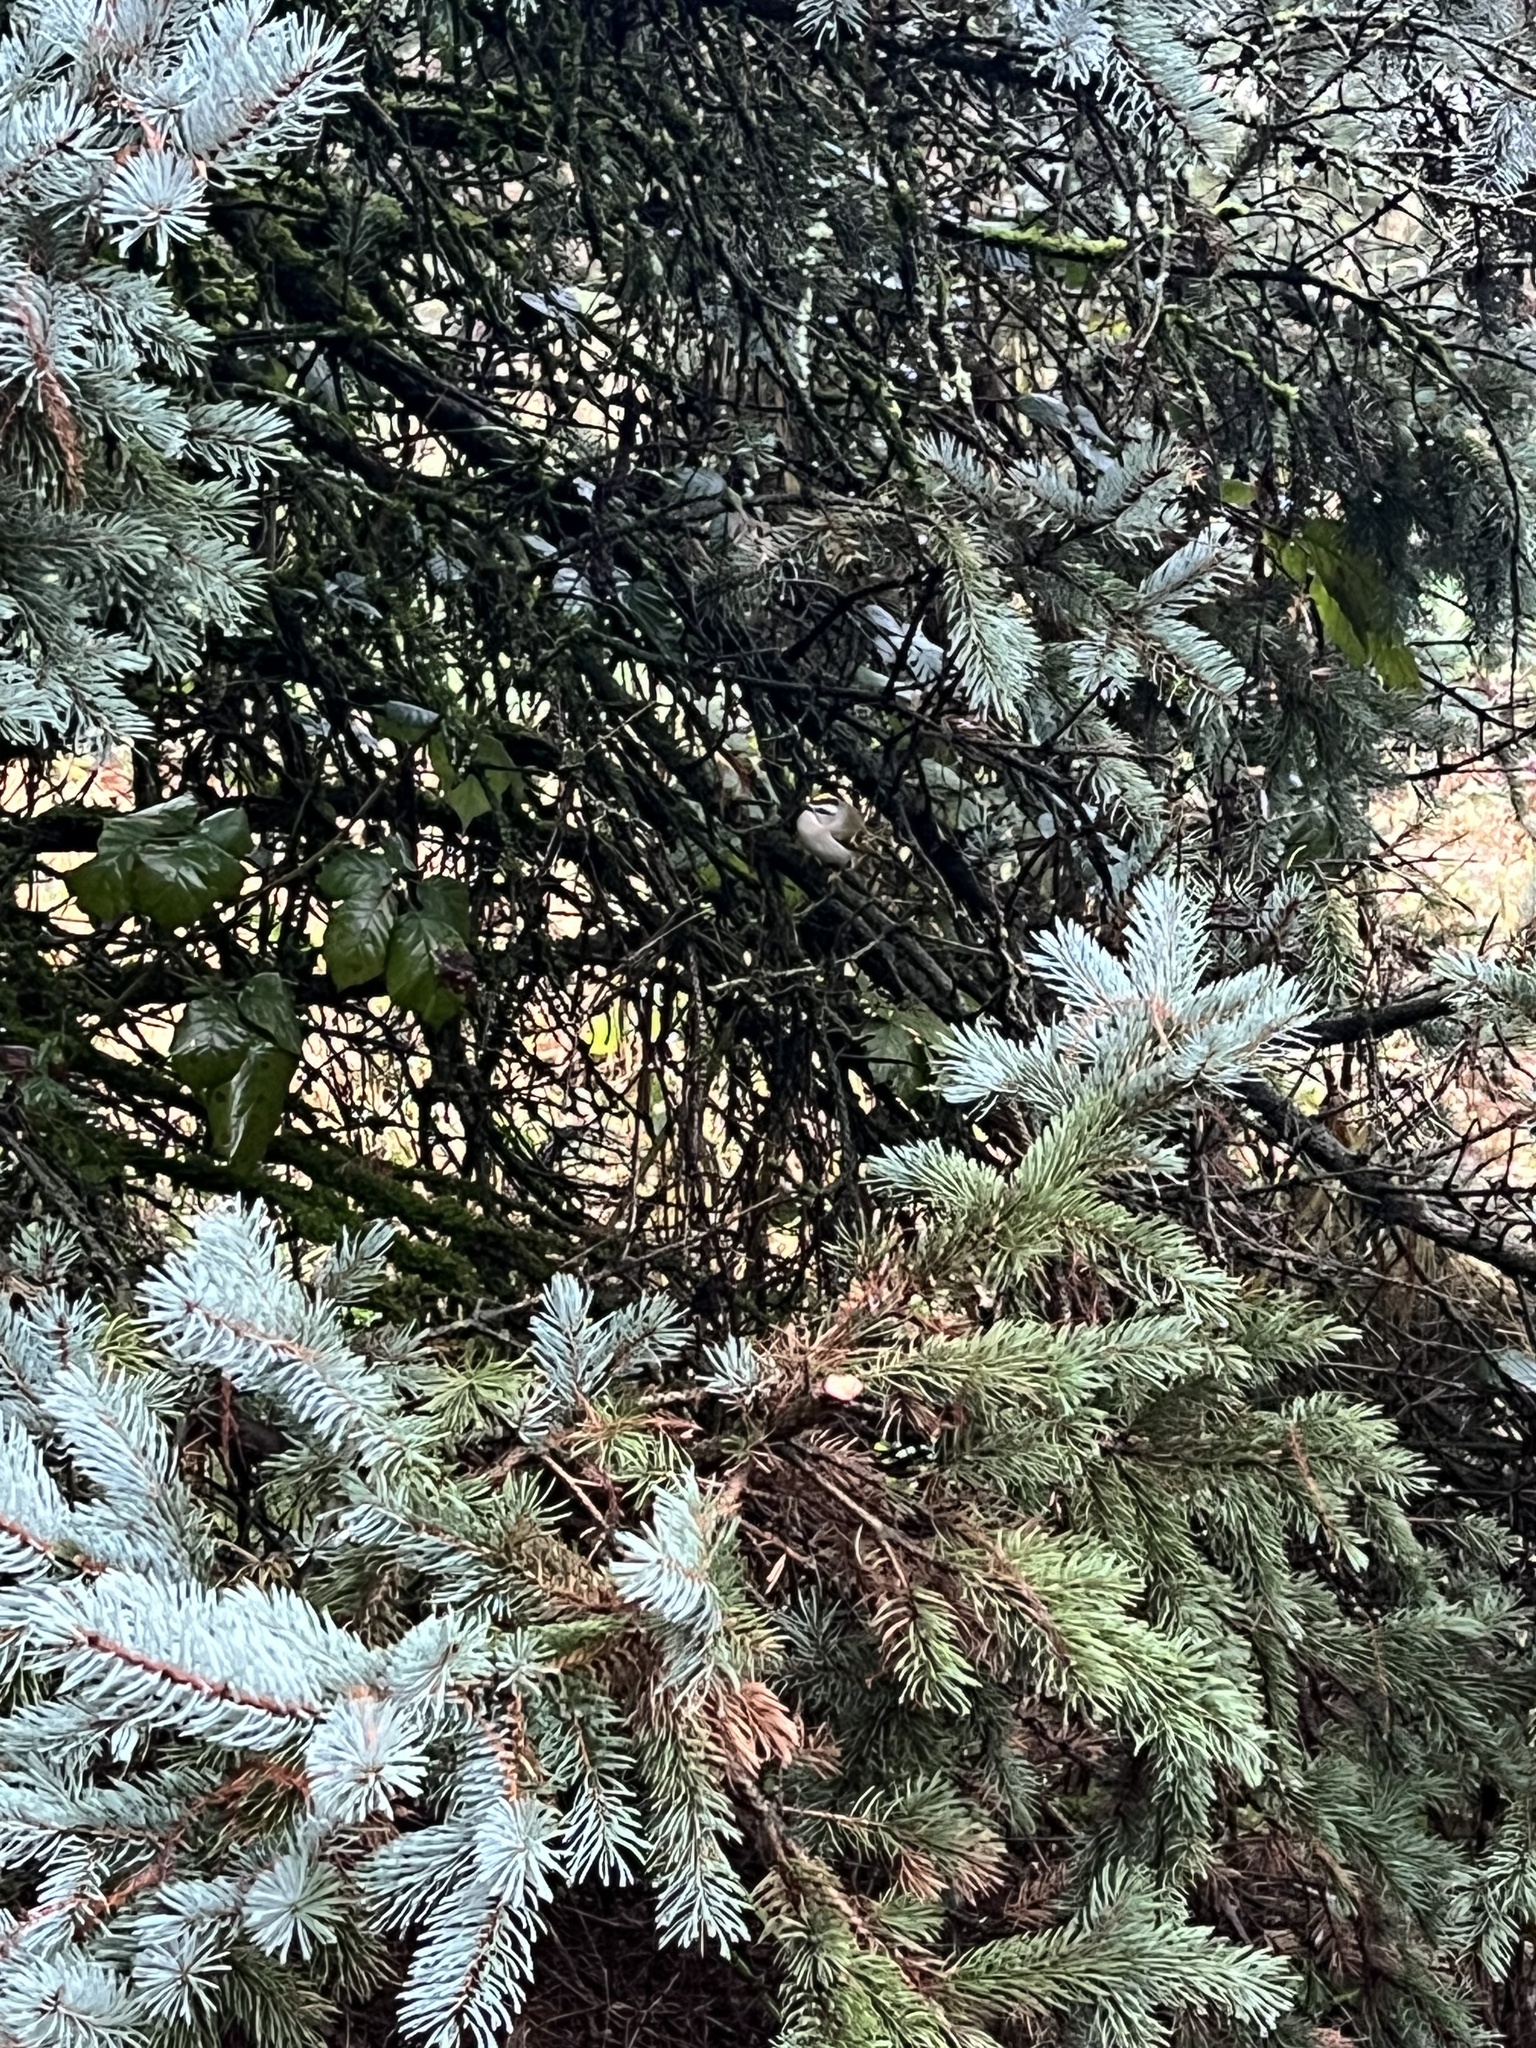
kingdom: Animalia
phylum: Chordata
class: Aves
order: Passeriformes
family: Regulidae
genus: Regulus
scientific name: Regulus satrapa
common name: Golden-crowned kinglet
